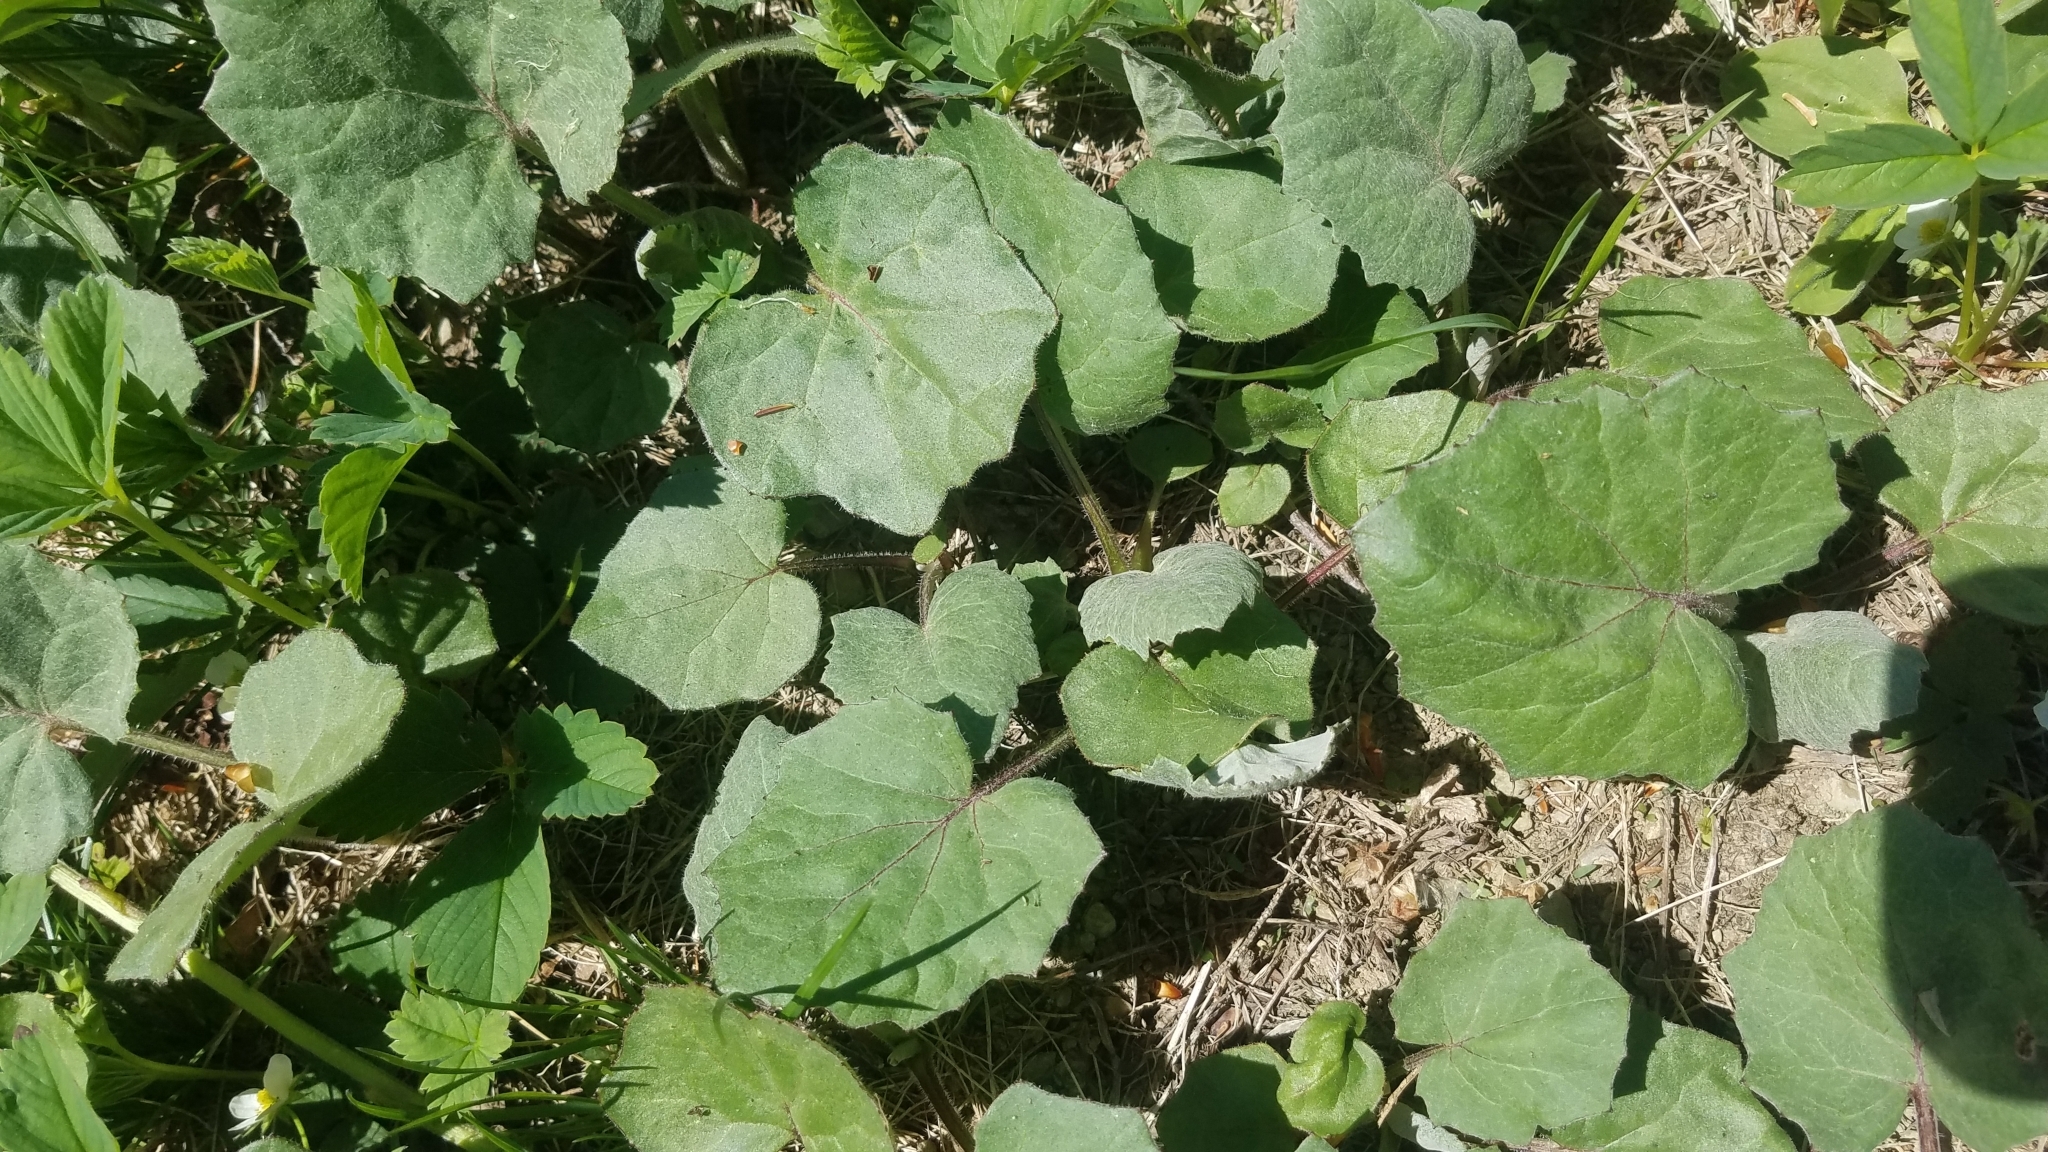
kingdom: Plantae
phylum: Tracheophyta
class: Magnoliopsida
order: Asterales
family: Asteraceae
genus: Tussilago
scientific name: Tussilago farfara
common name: Coltsfoot
